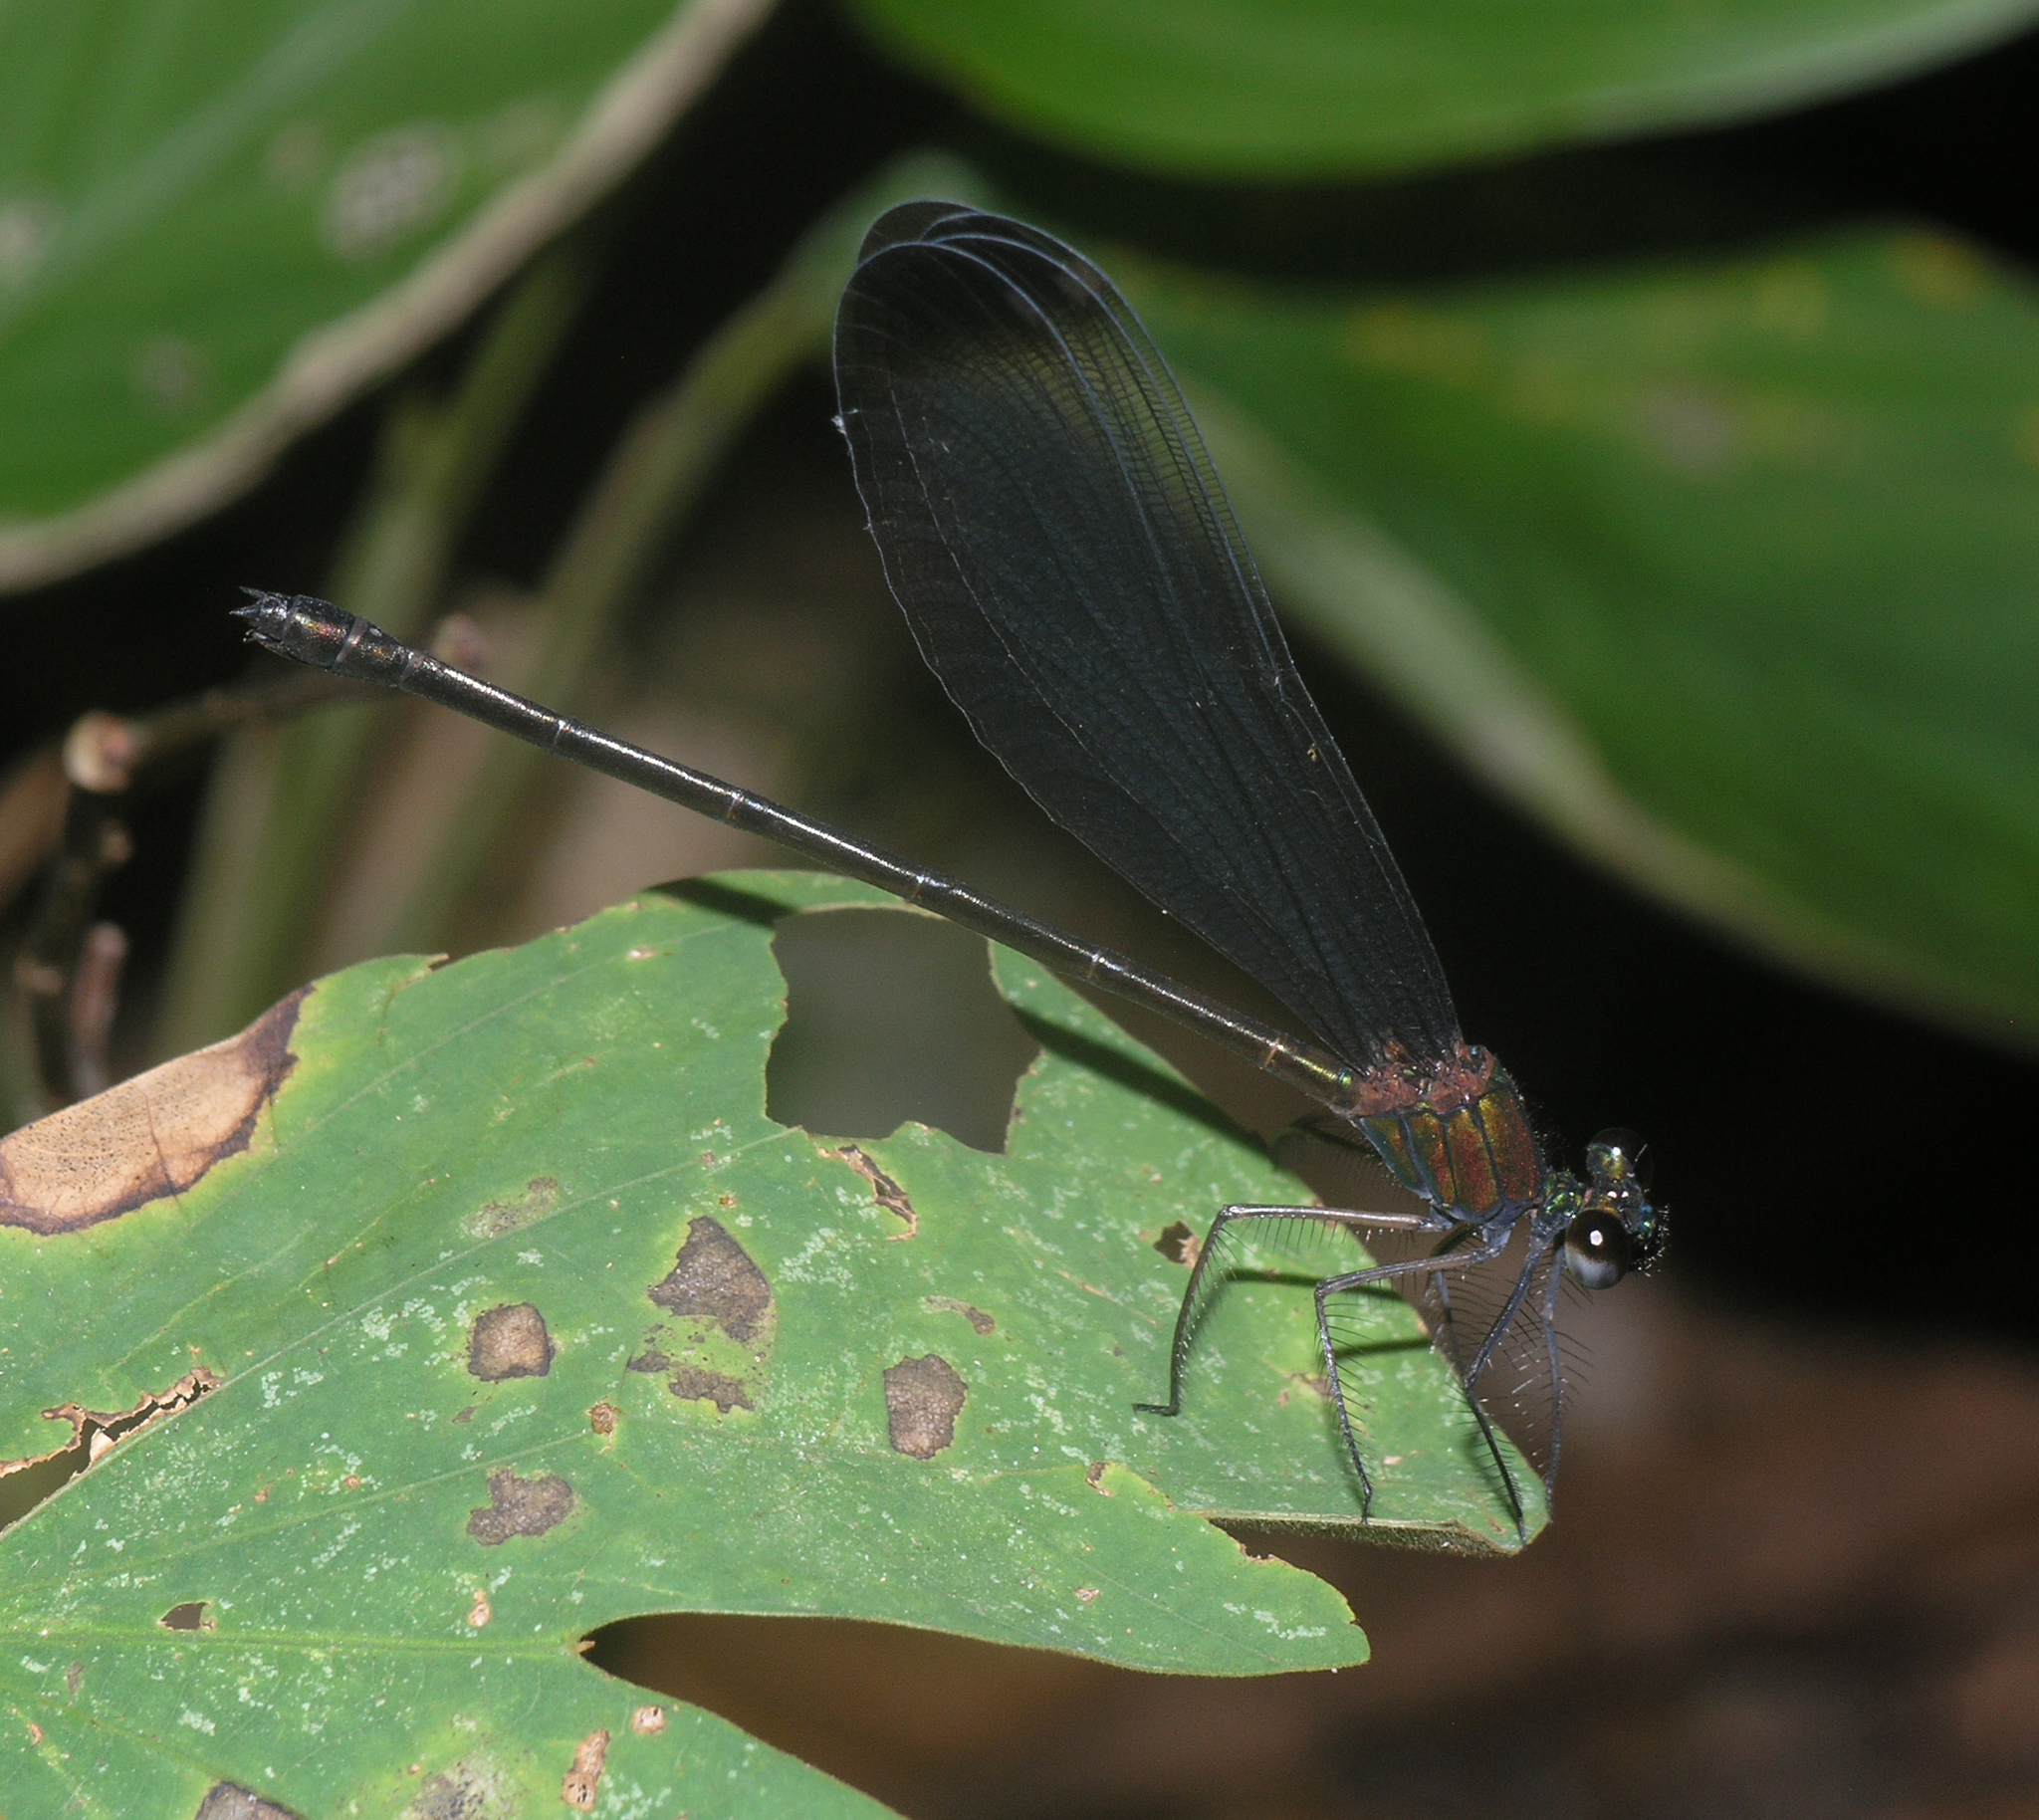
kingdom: Animalia
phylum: Arthropoda
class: Insecta
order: Odonata
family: Calopterygidae
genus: Echo
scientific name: Echo modesta
